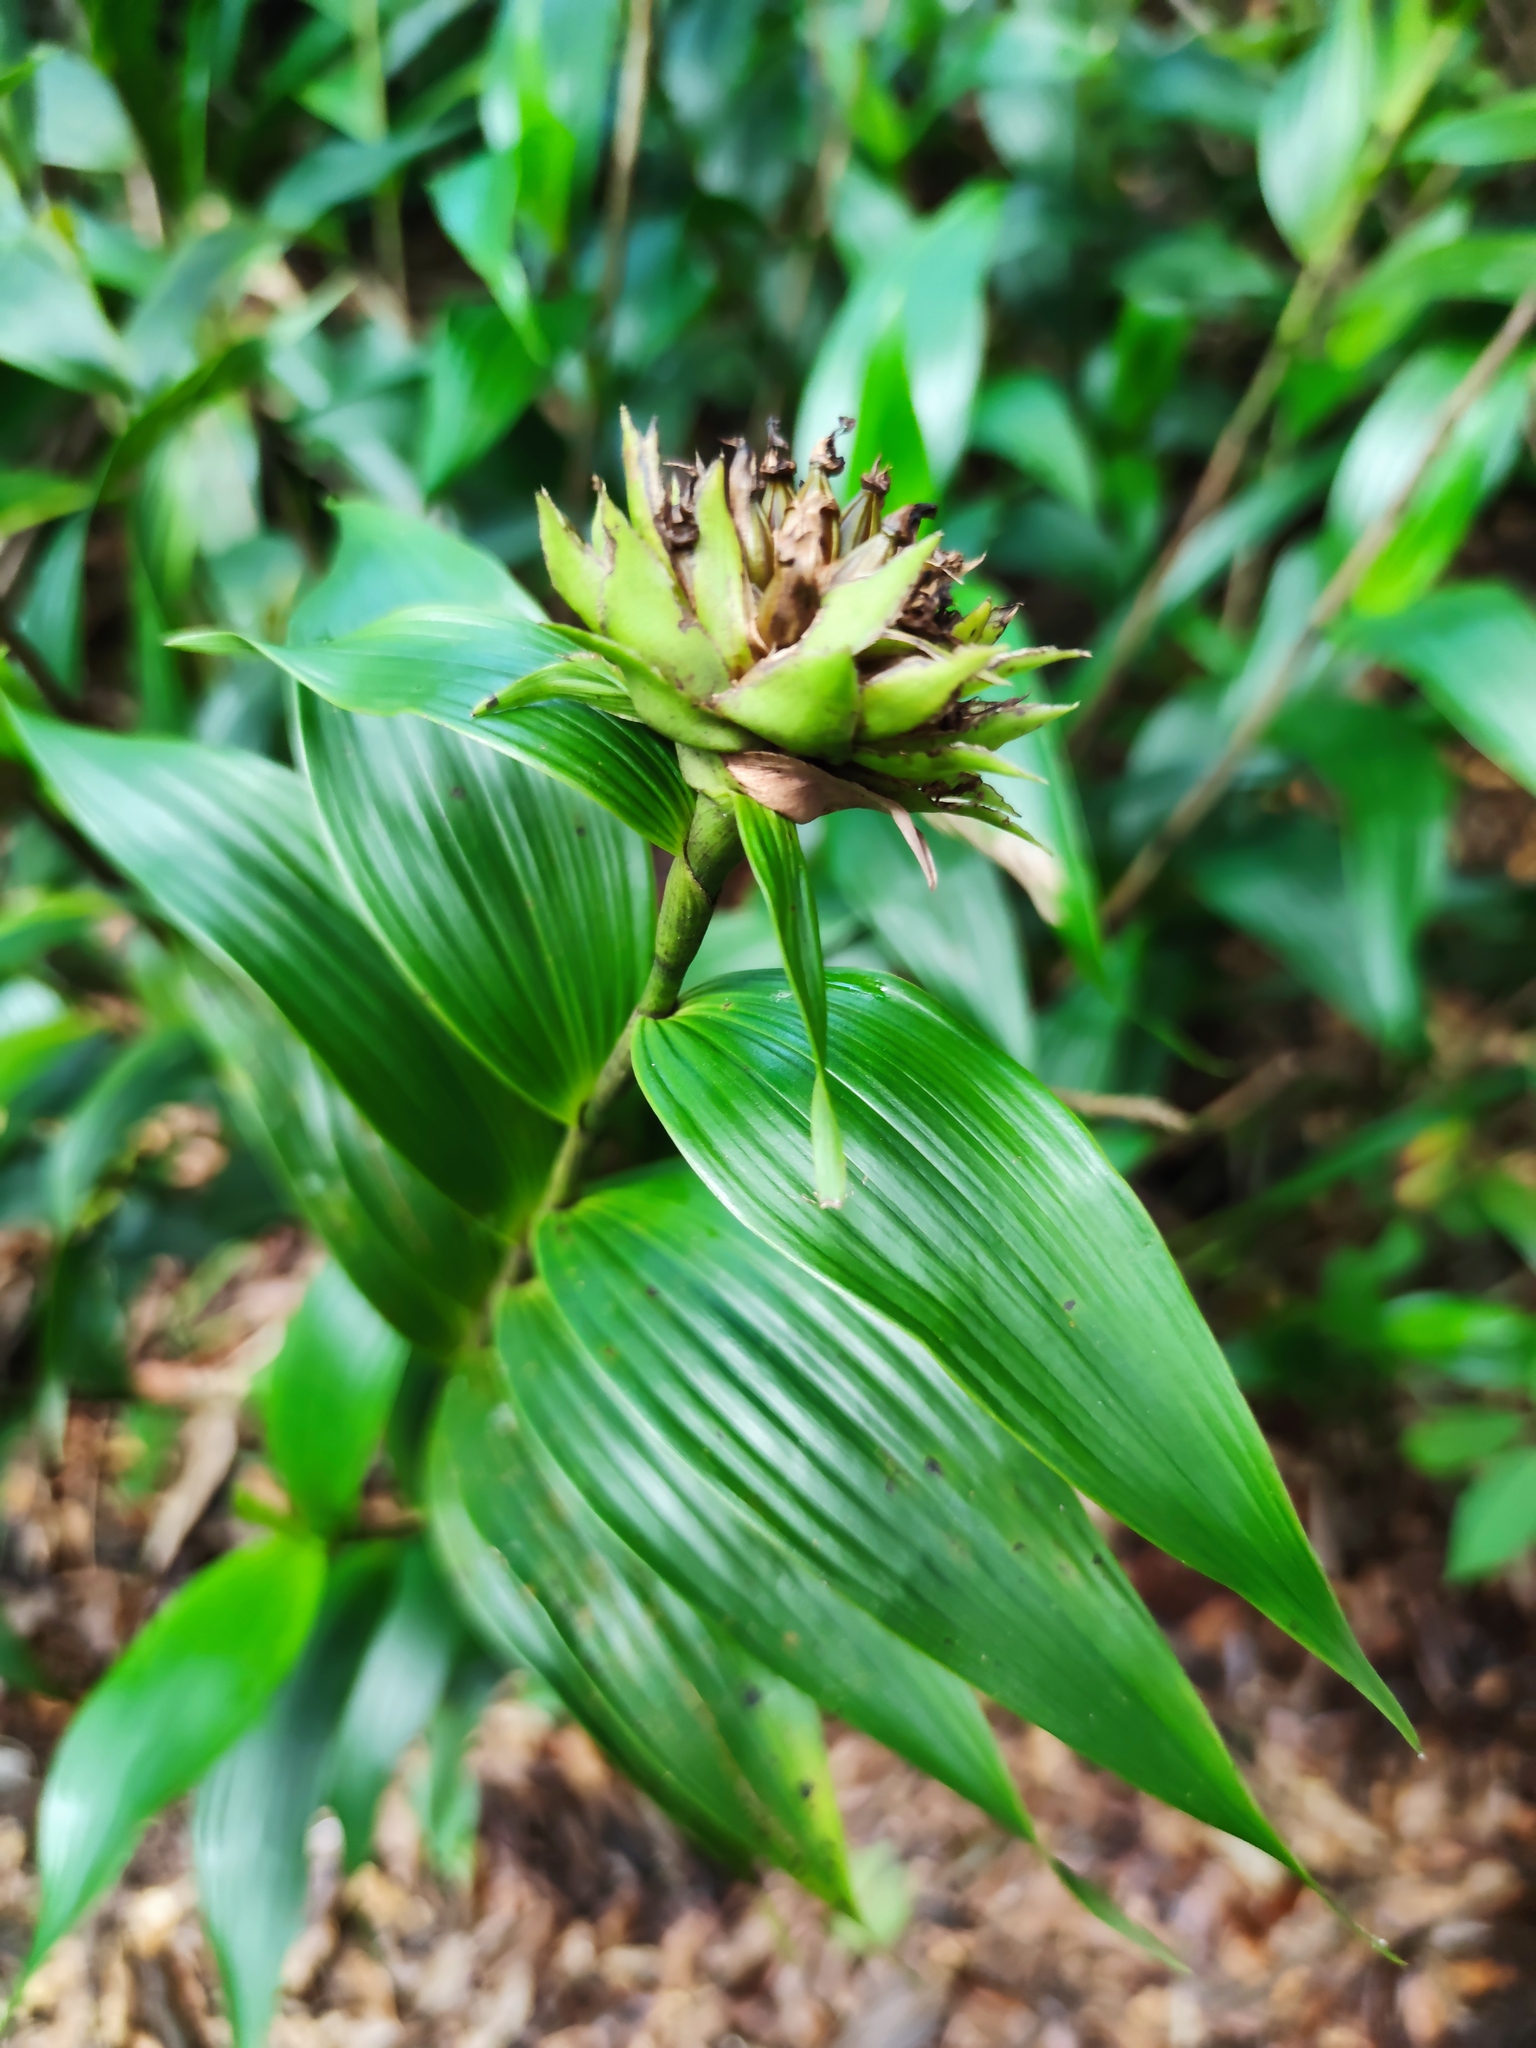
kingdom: Plantae
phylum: Tracheophyta
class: Liliopsida
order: Asparagales
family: Orchidaceae
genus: Elleanthus
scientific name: Elleanthus capitatus
